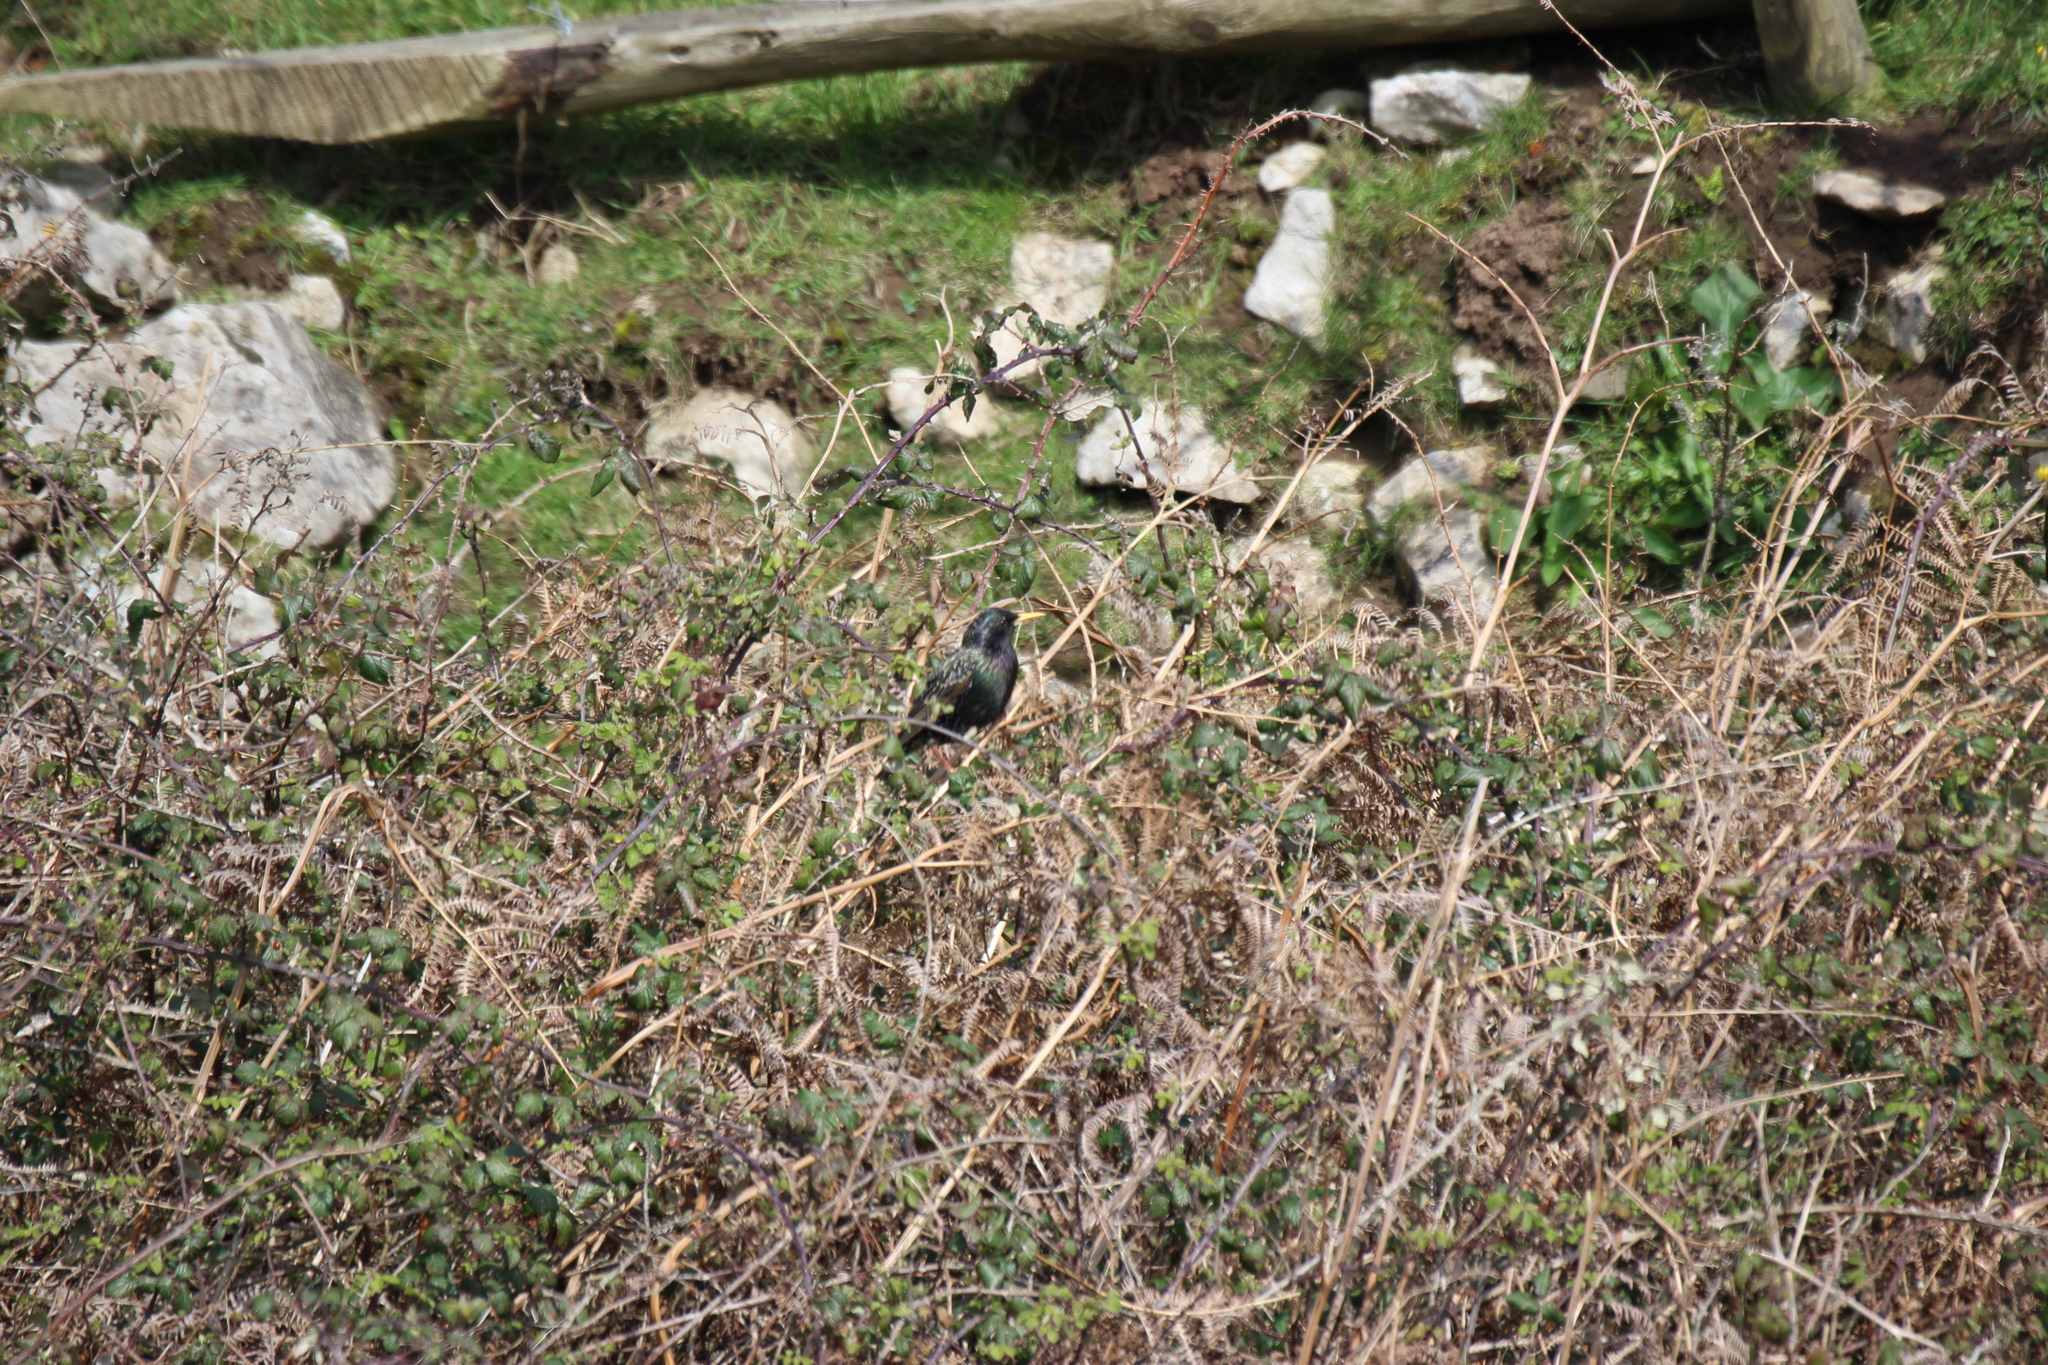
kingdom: Animalia
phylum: Chordata
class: Aves
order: Passeriformes
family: Sturnidae
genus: Sturnus
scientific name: Sturnus vulgaris
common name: Common starling
